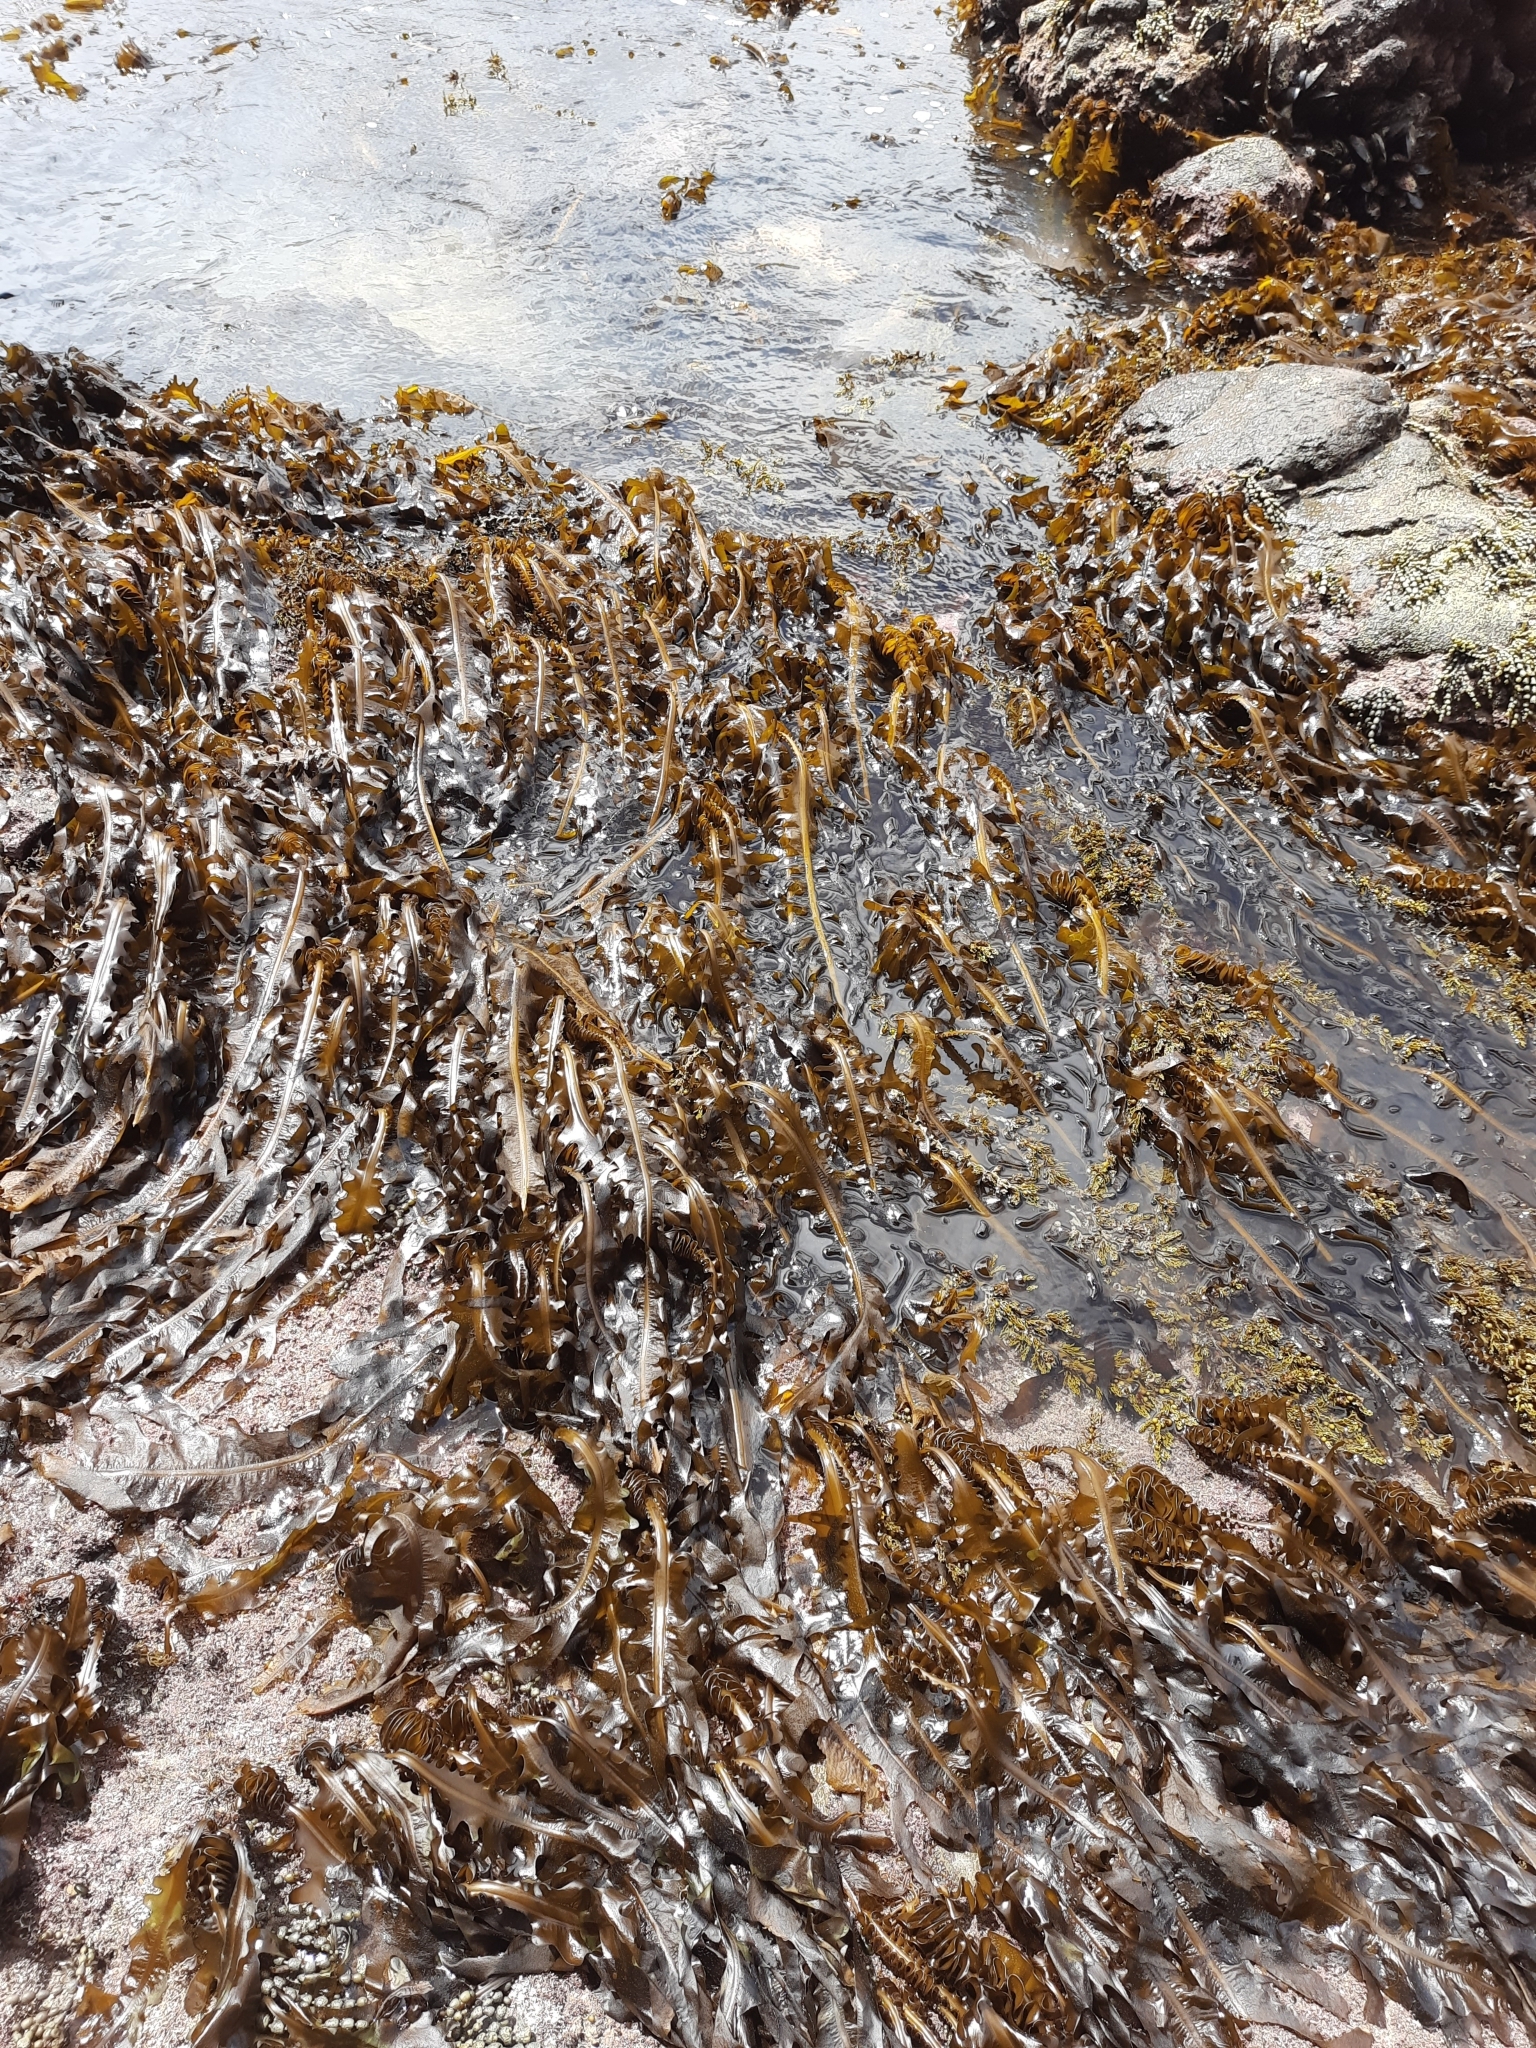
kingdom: Chromista
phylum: Ochrophyta
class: Phaeophyceae
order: Laminariales
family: Alariaceae
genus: Undaria
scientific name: Undaria pinnatifida
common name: Asian kelp
